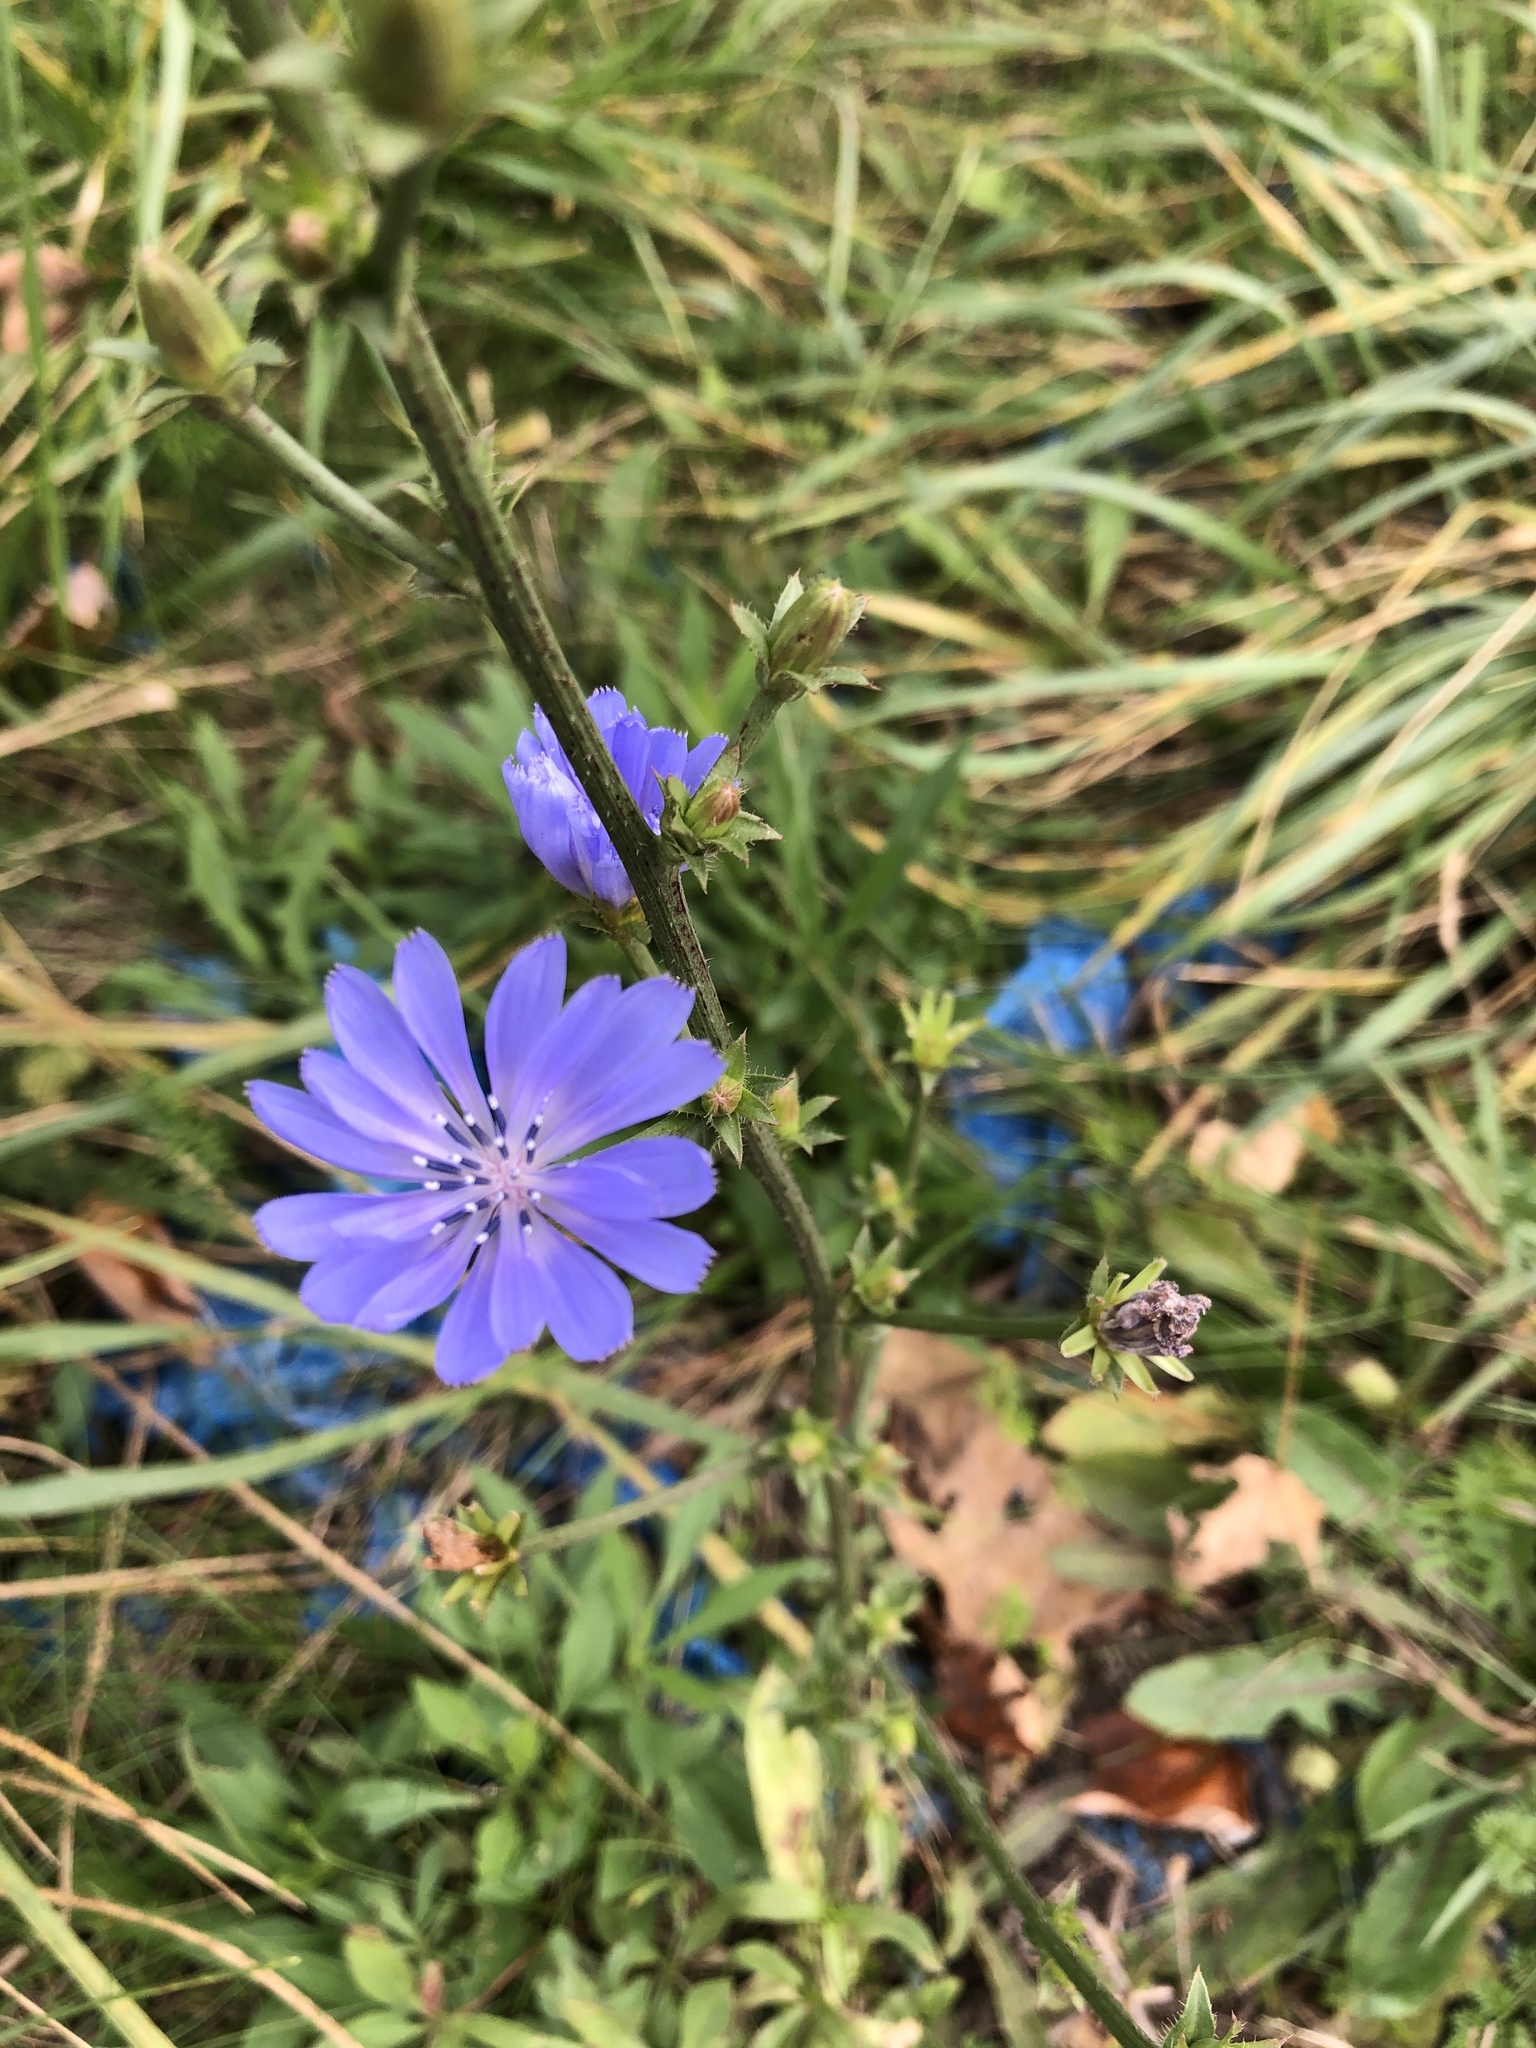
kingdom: Plantae
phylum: Tracheophyta
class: Magnoliopsida
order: Asterales
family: Asteraceae
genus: Cichorium
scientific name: Cichorium intybus
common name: Chicory
